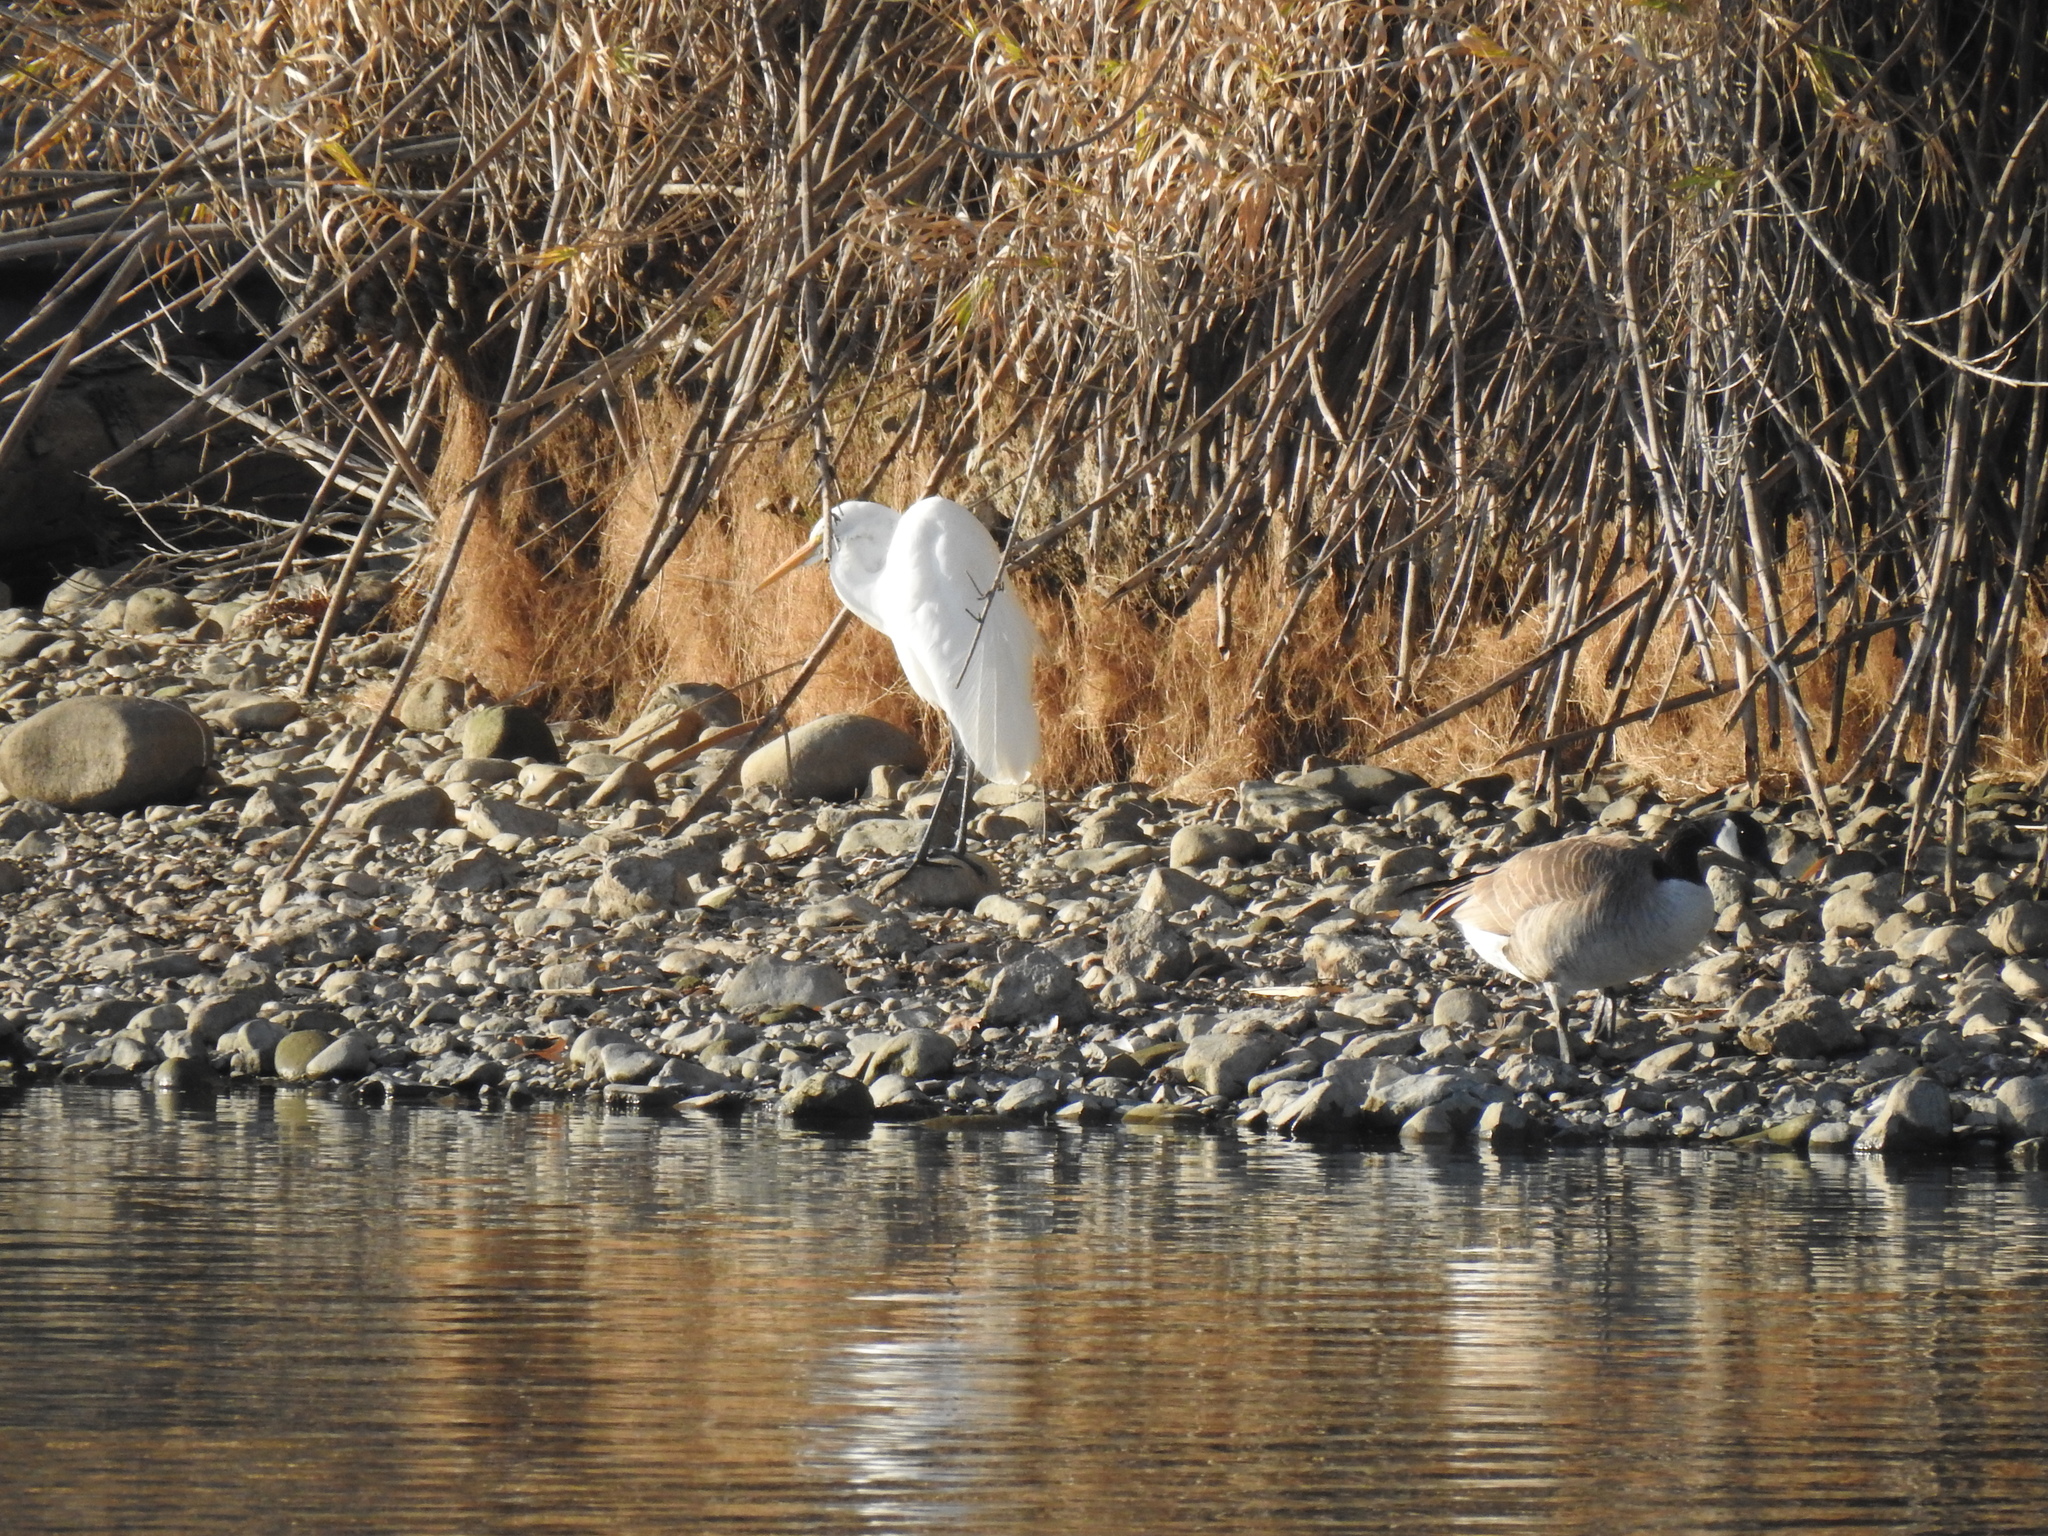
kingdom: Animalia
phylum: Chordata
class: Aves
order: Pelecaniformes
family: Ardeidae
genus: Ardea
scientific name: Ardea alba
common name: Great egret
